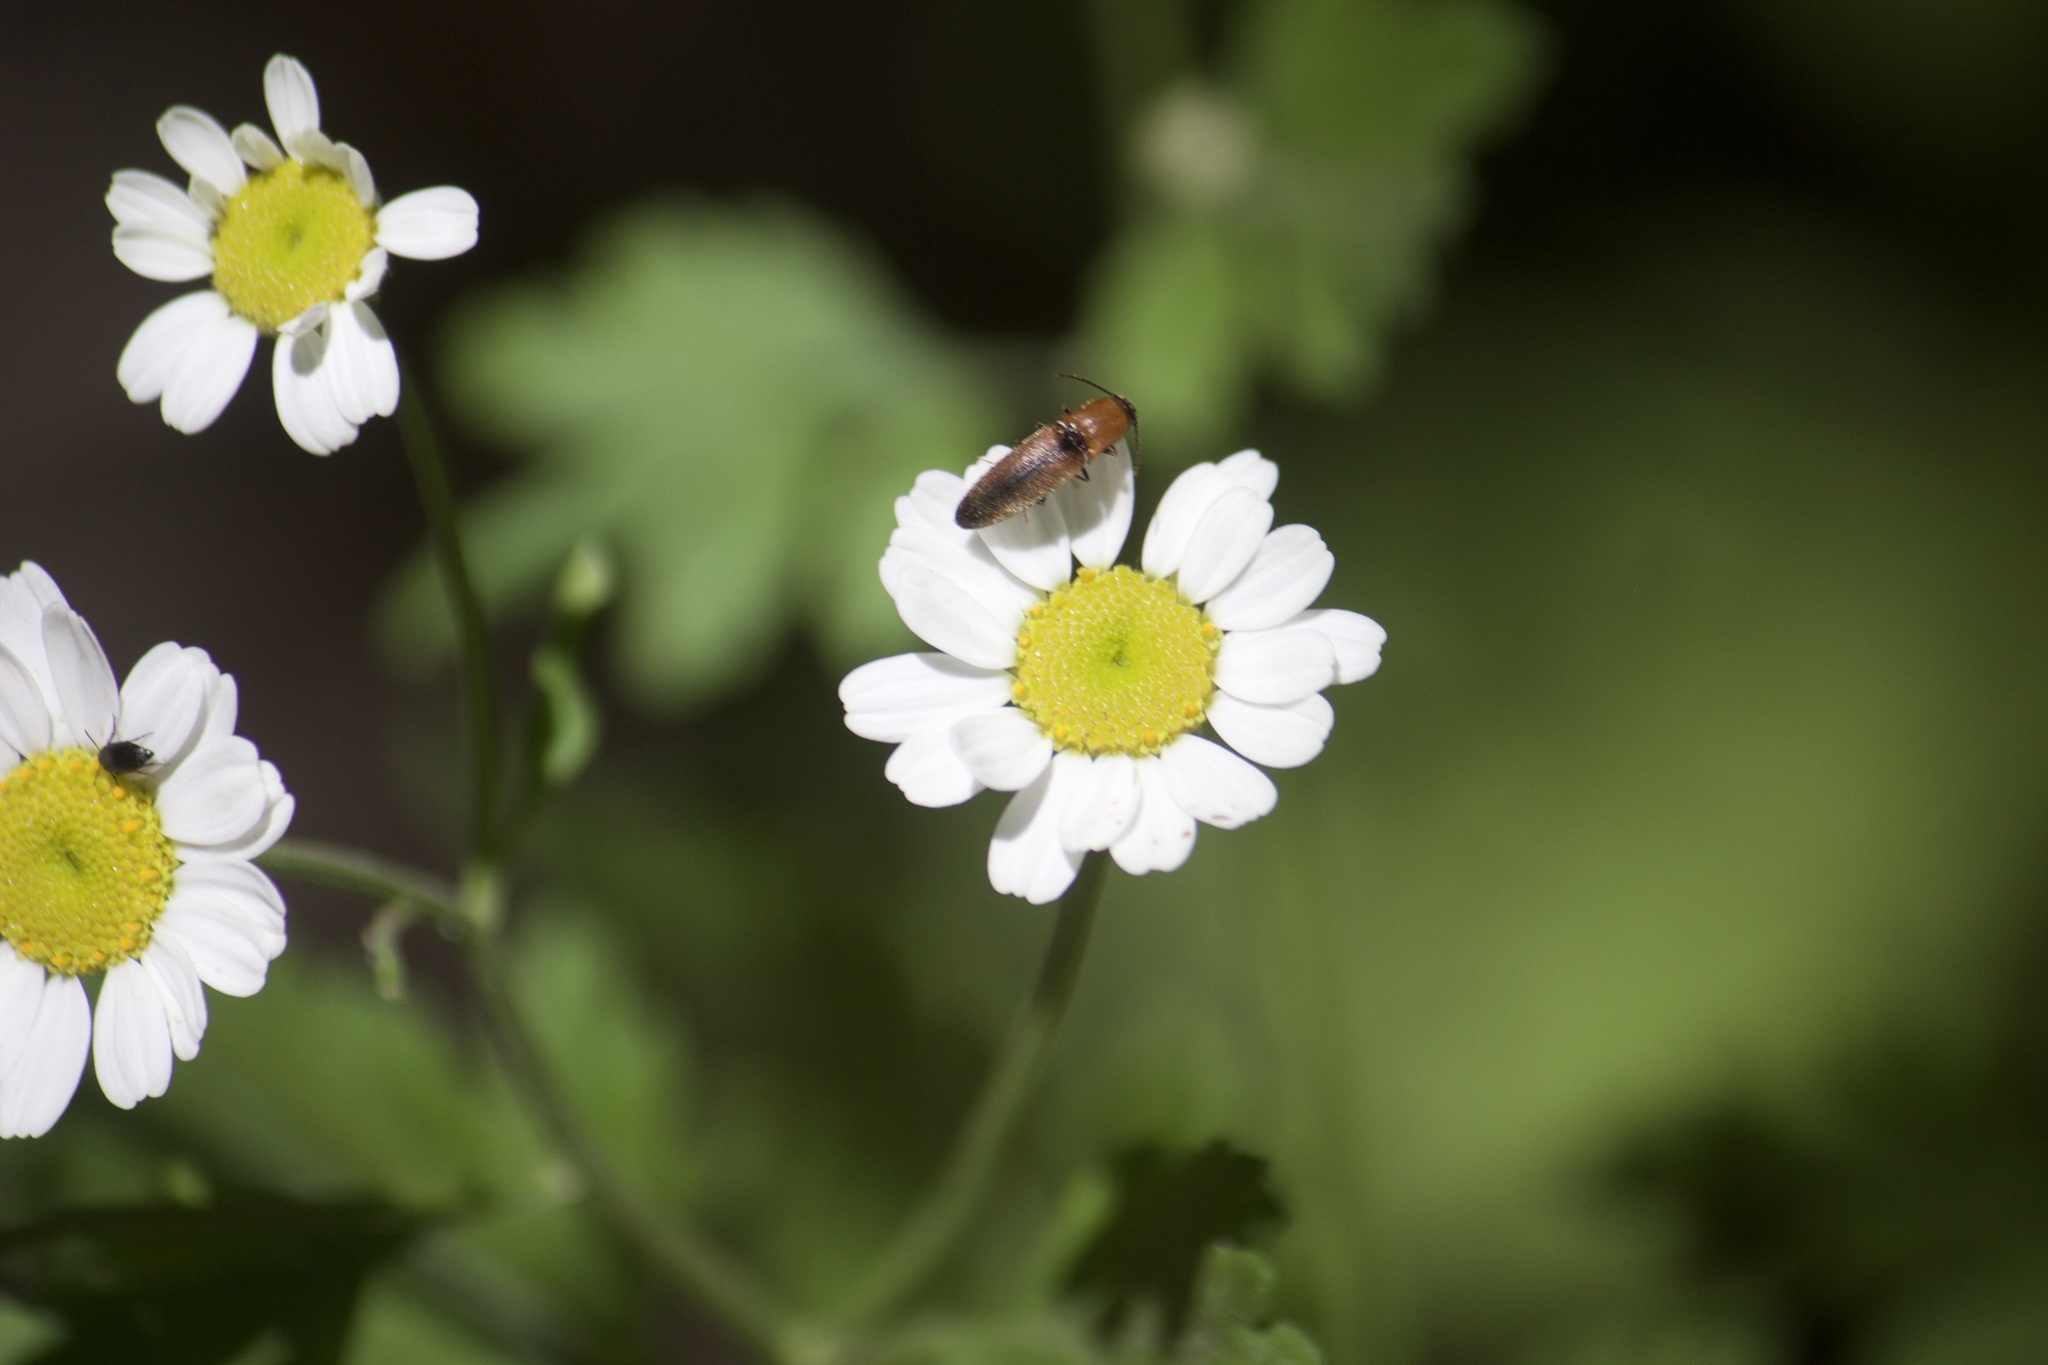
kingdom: Plantae
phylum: Tracheophyta
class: Magnoliopsida
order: Asterales
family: Asteraceae
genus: Tanacetum
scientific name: Tanacetum parthenium
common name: Feverfew
